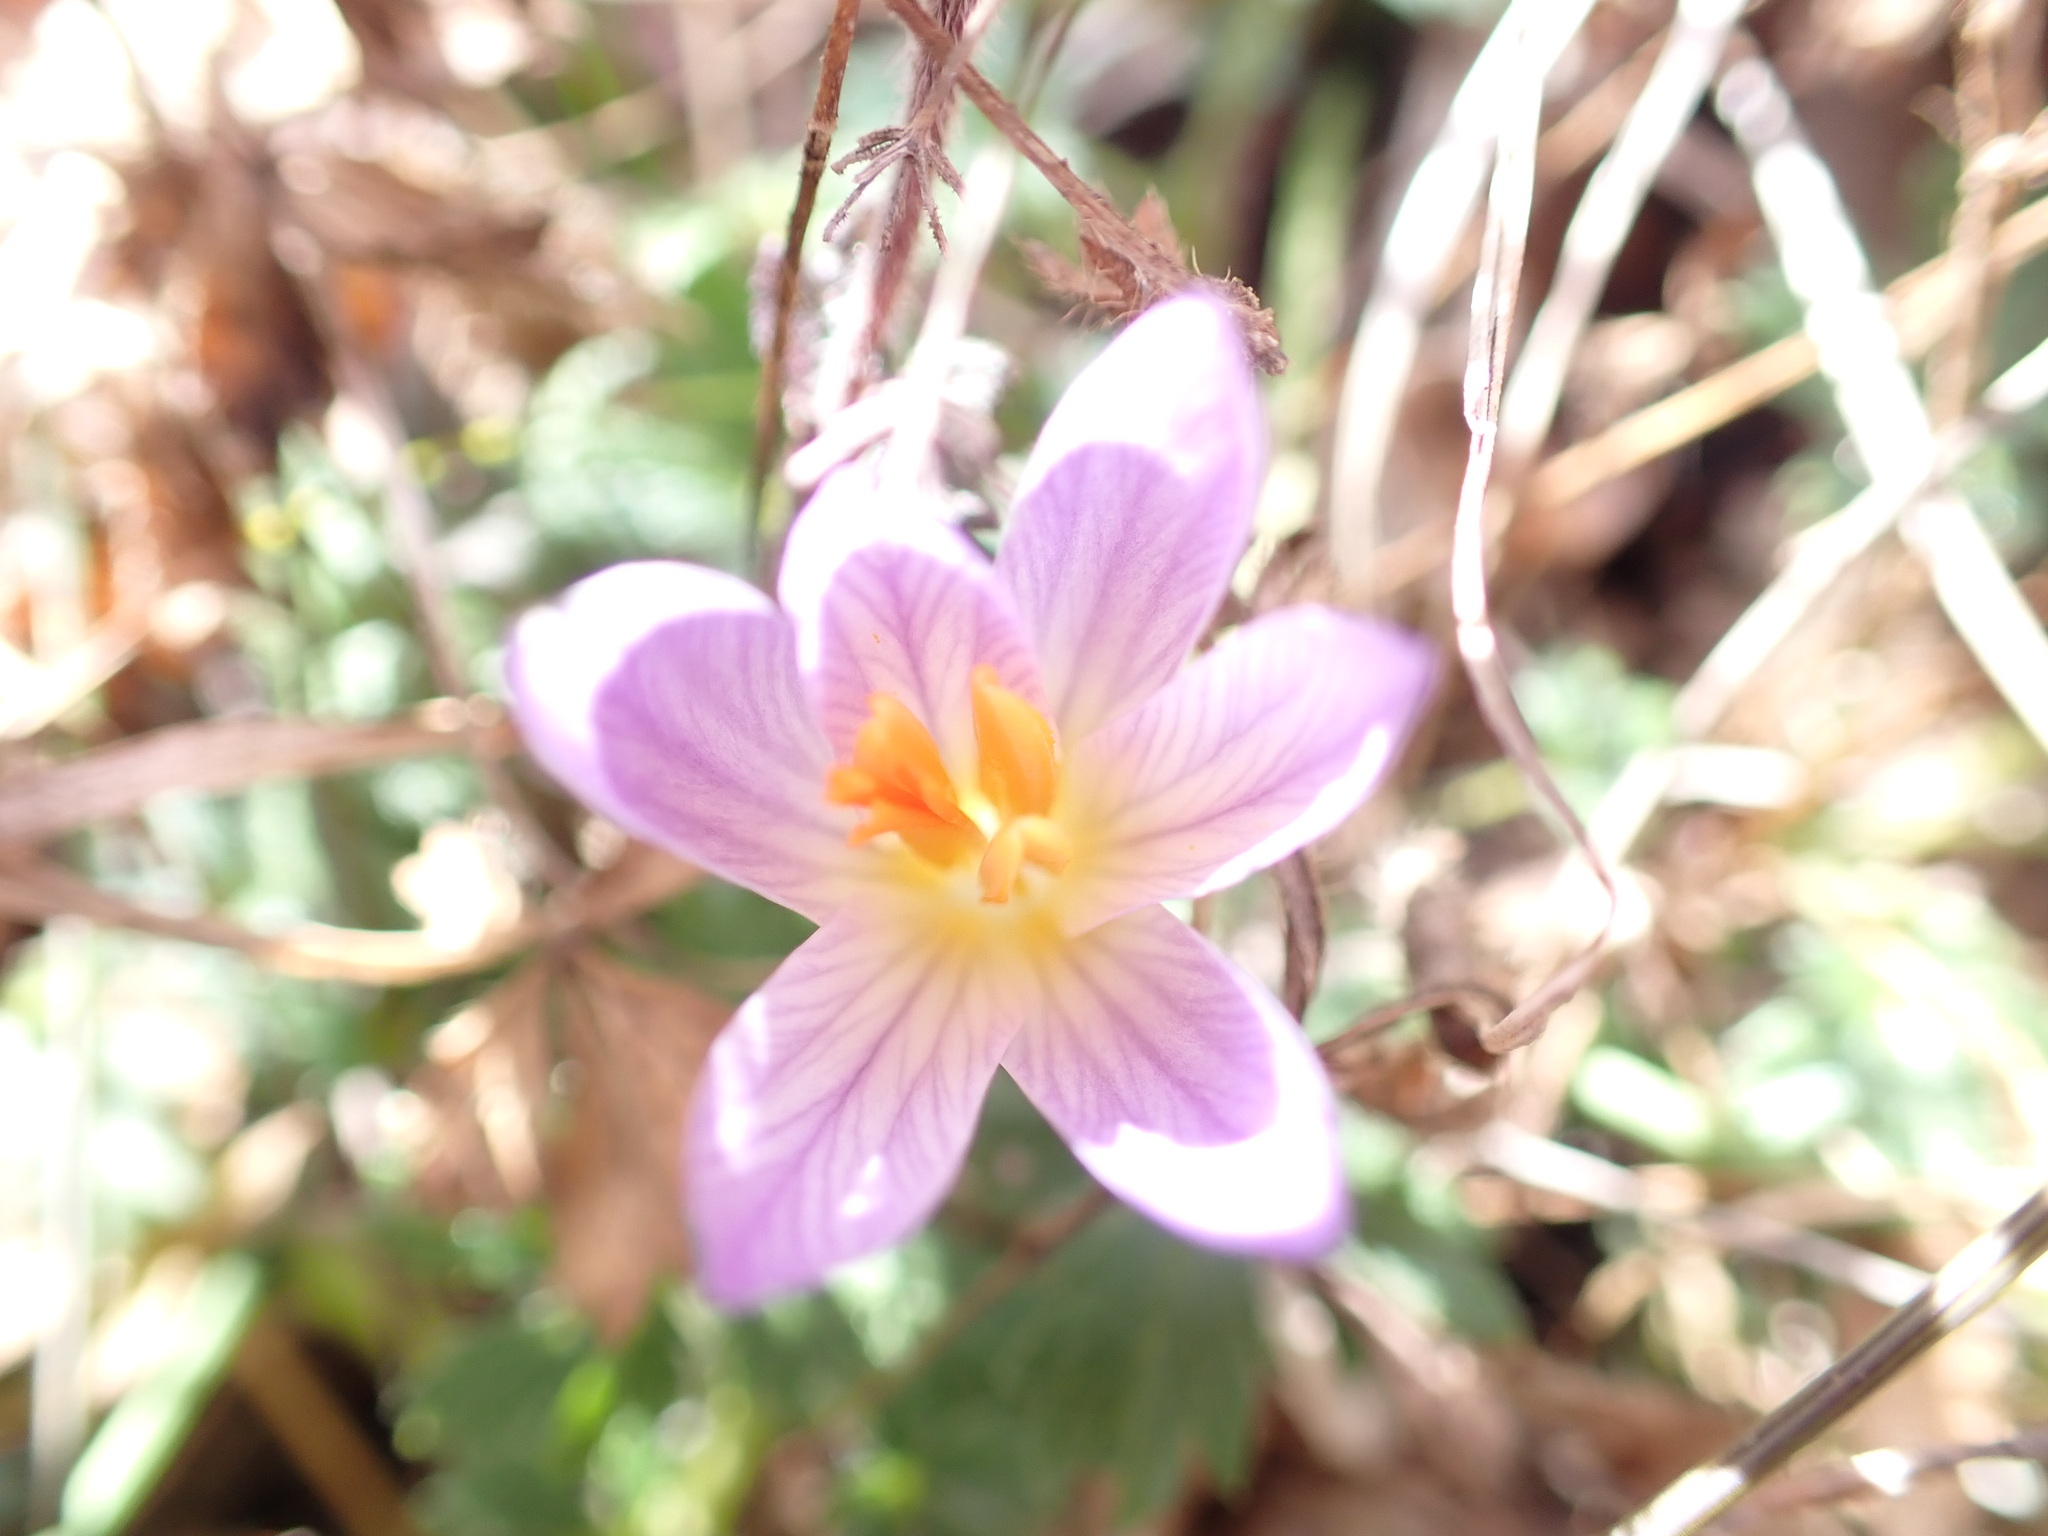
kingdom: Plantae
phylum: Tracheophyta
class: Liliopsida
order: Asparagales
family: Iridaceae
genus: Crocus
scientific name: Crocus versicolor
